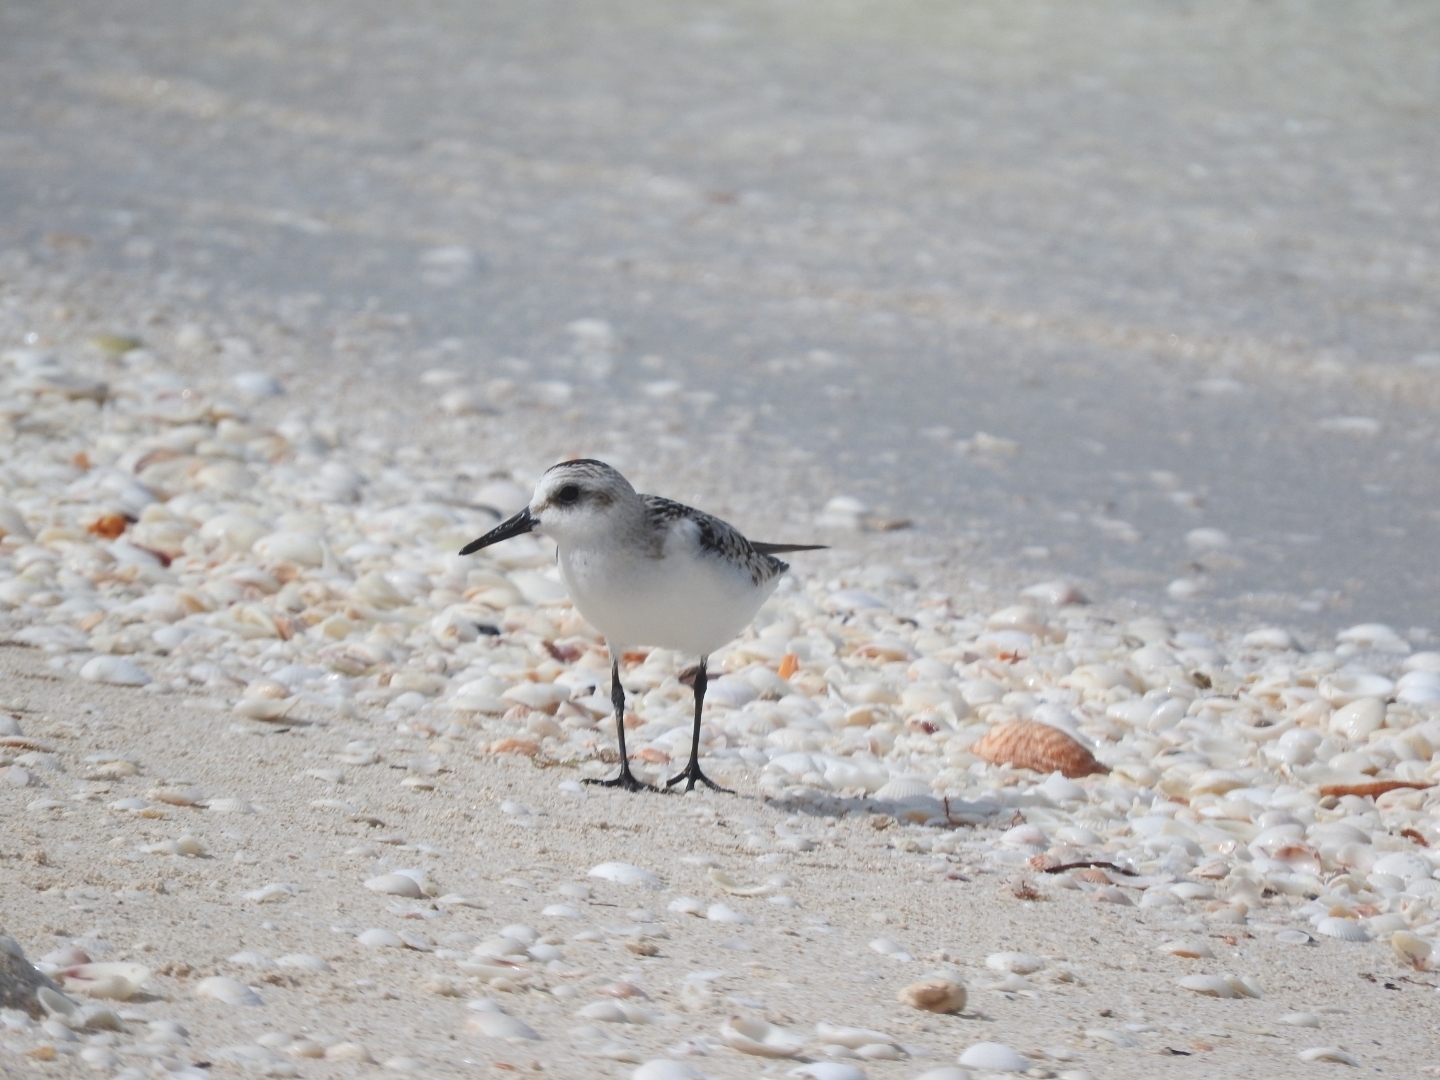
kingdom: Animalia
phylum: Chordata
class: Aves
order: Charadriiformes
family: Scolopacidae
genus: Calidris
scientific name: Calidris alba
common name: Sanderling
